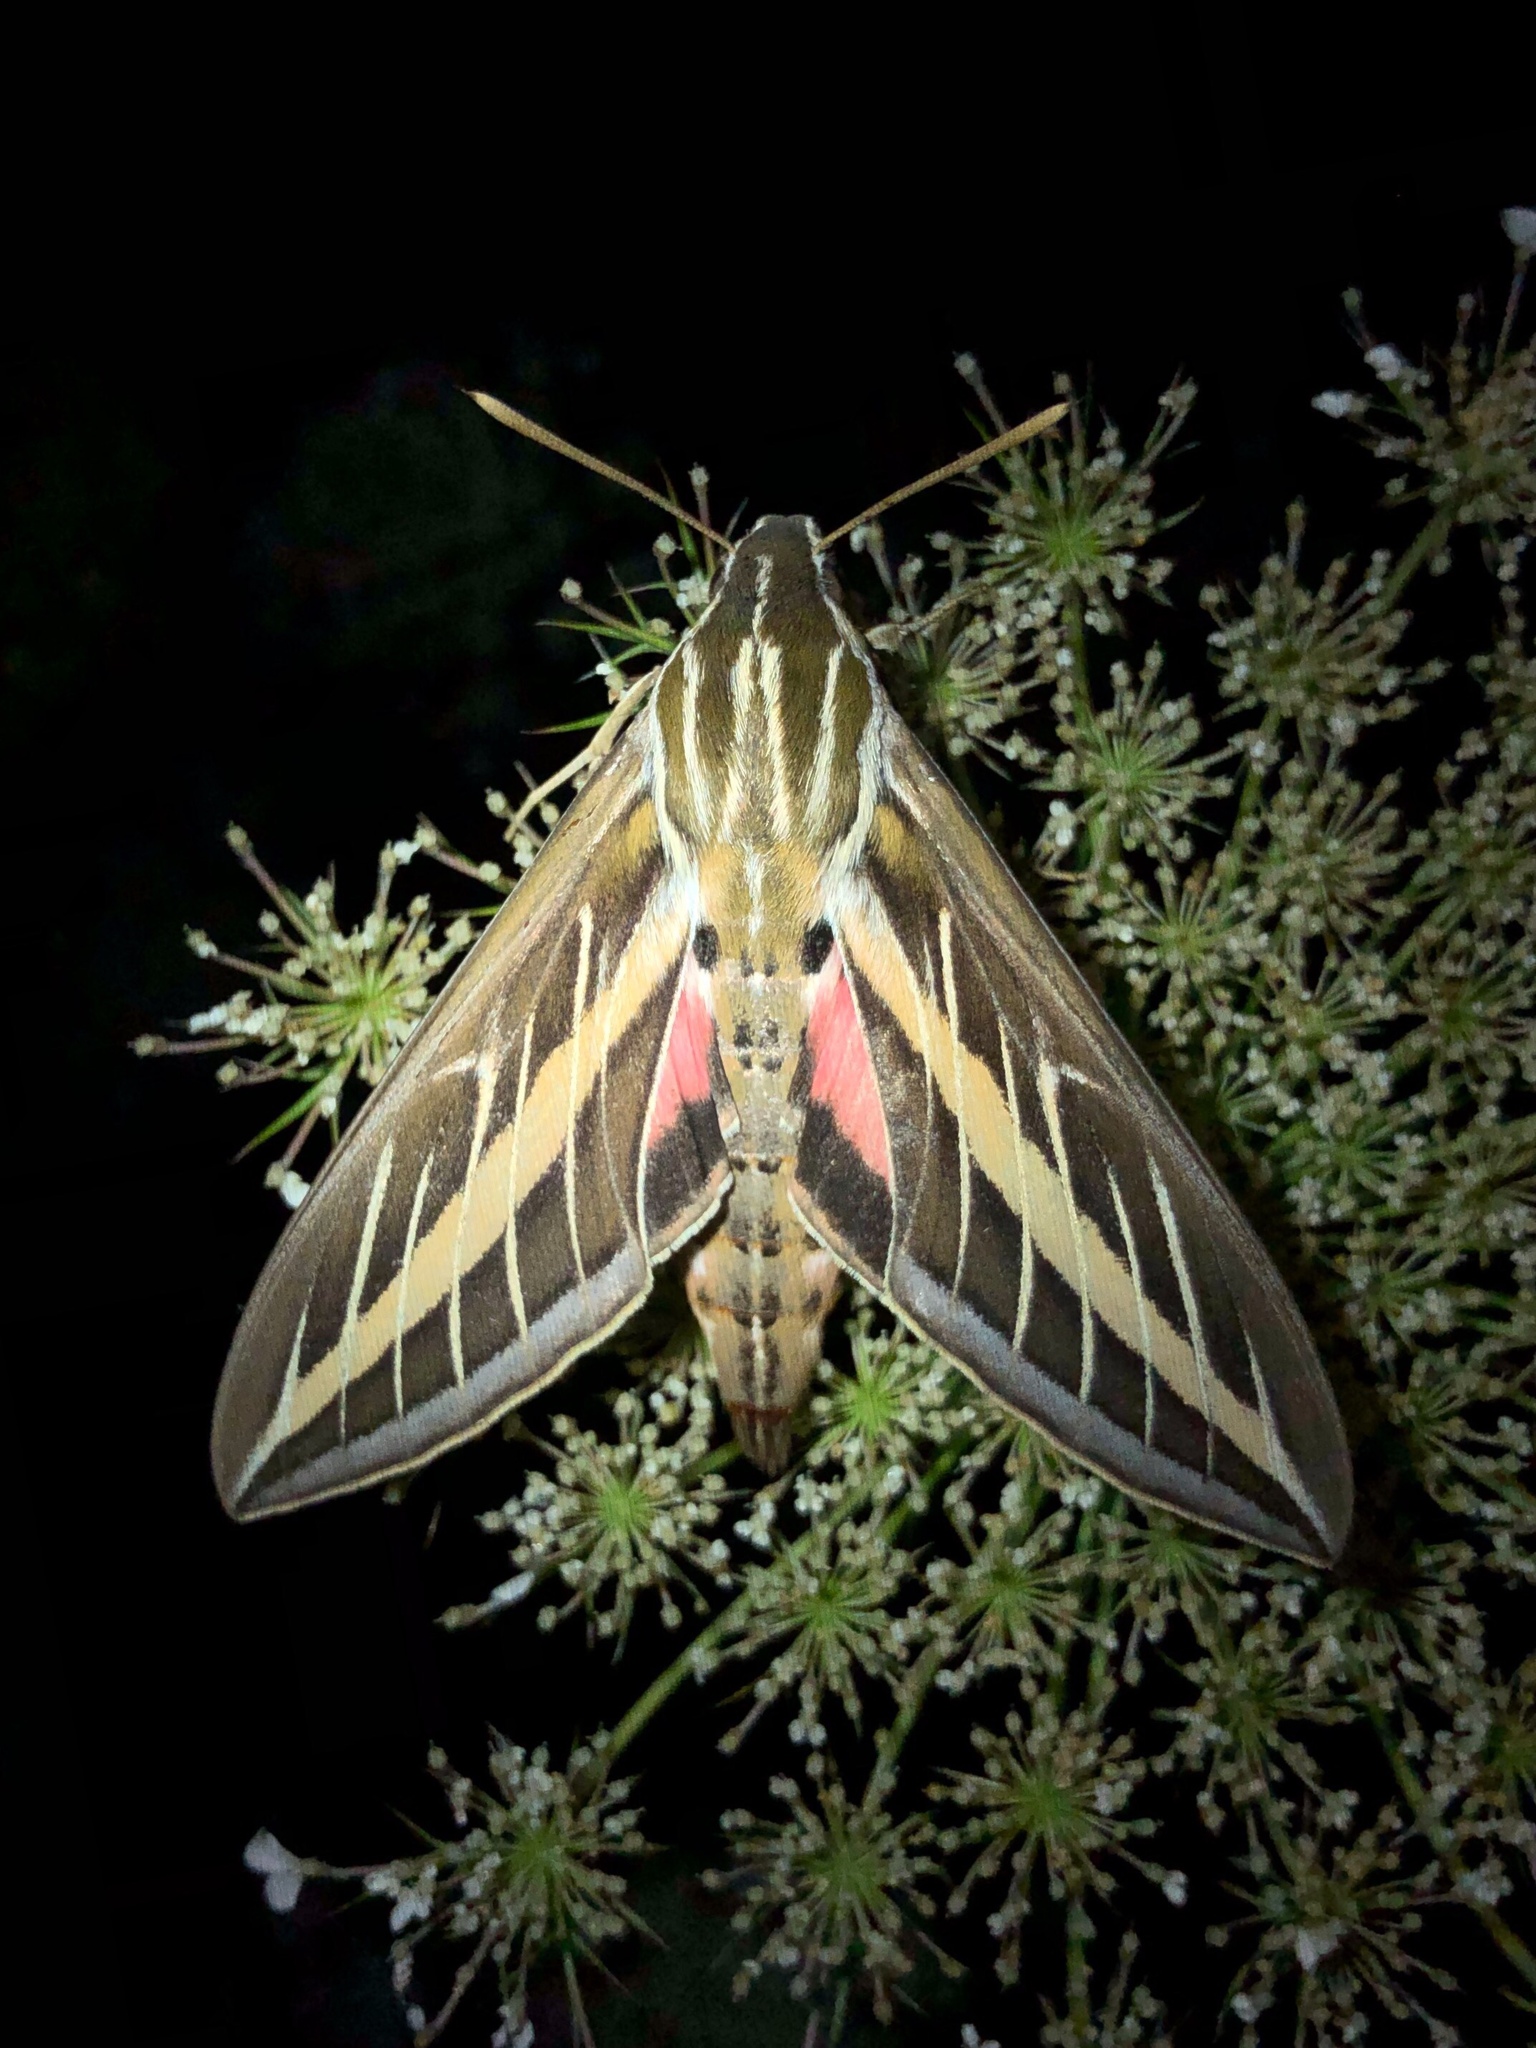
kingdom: Animalia
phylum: Arthropoda
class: Insecta
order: Lepidoptera
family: Sphingidae
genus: Hyles
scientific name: Hyles lineata
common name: White-lined sphinx
